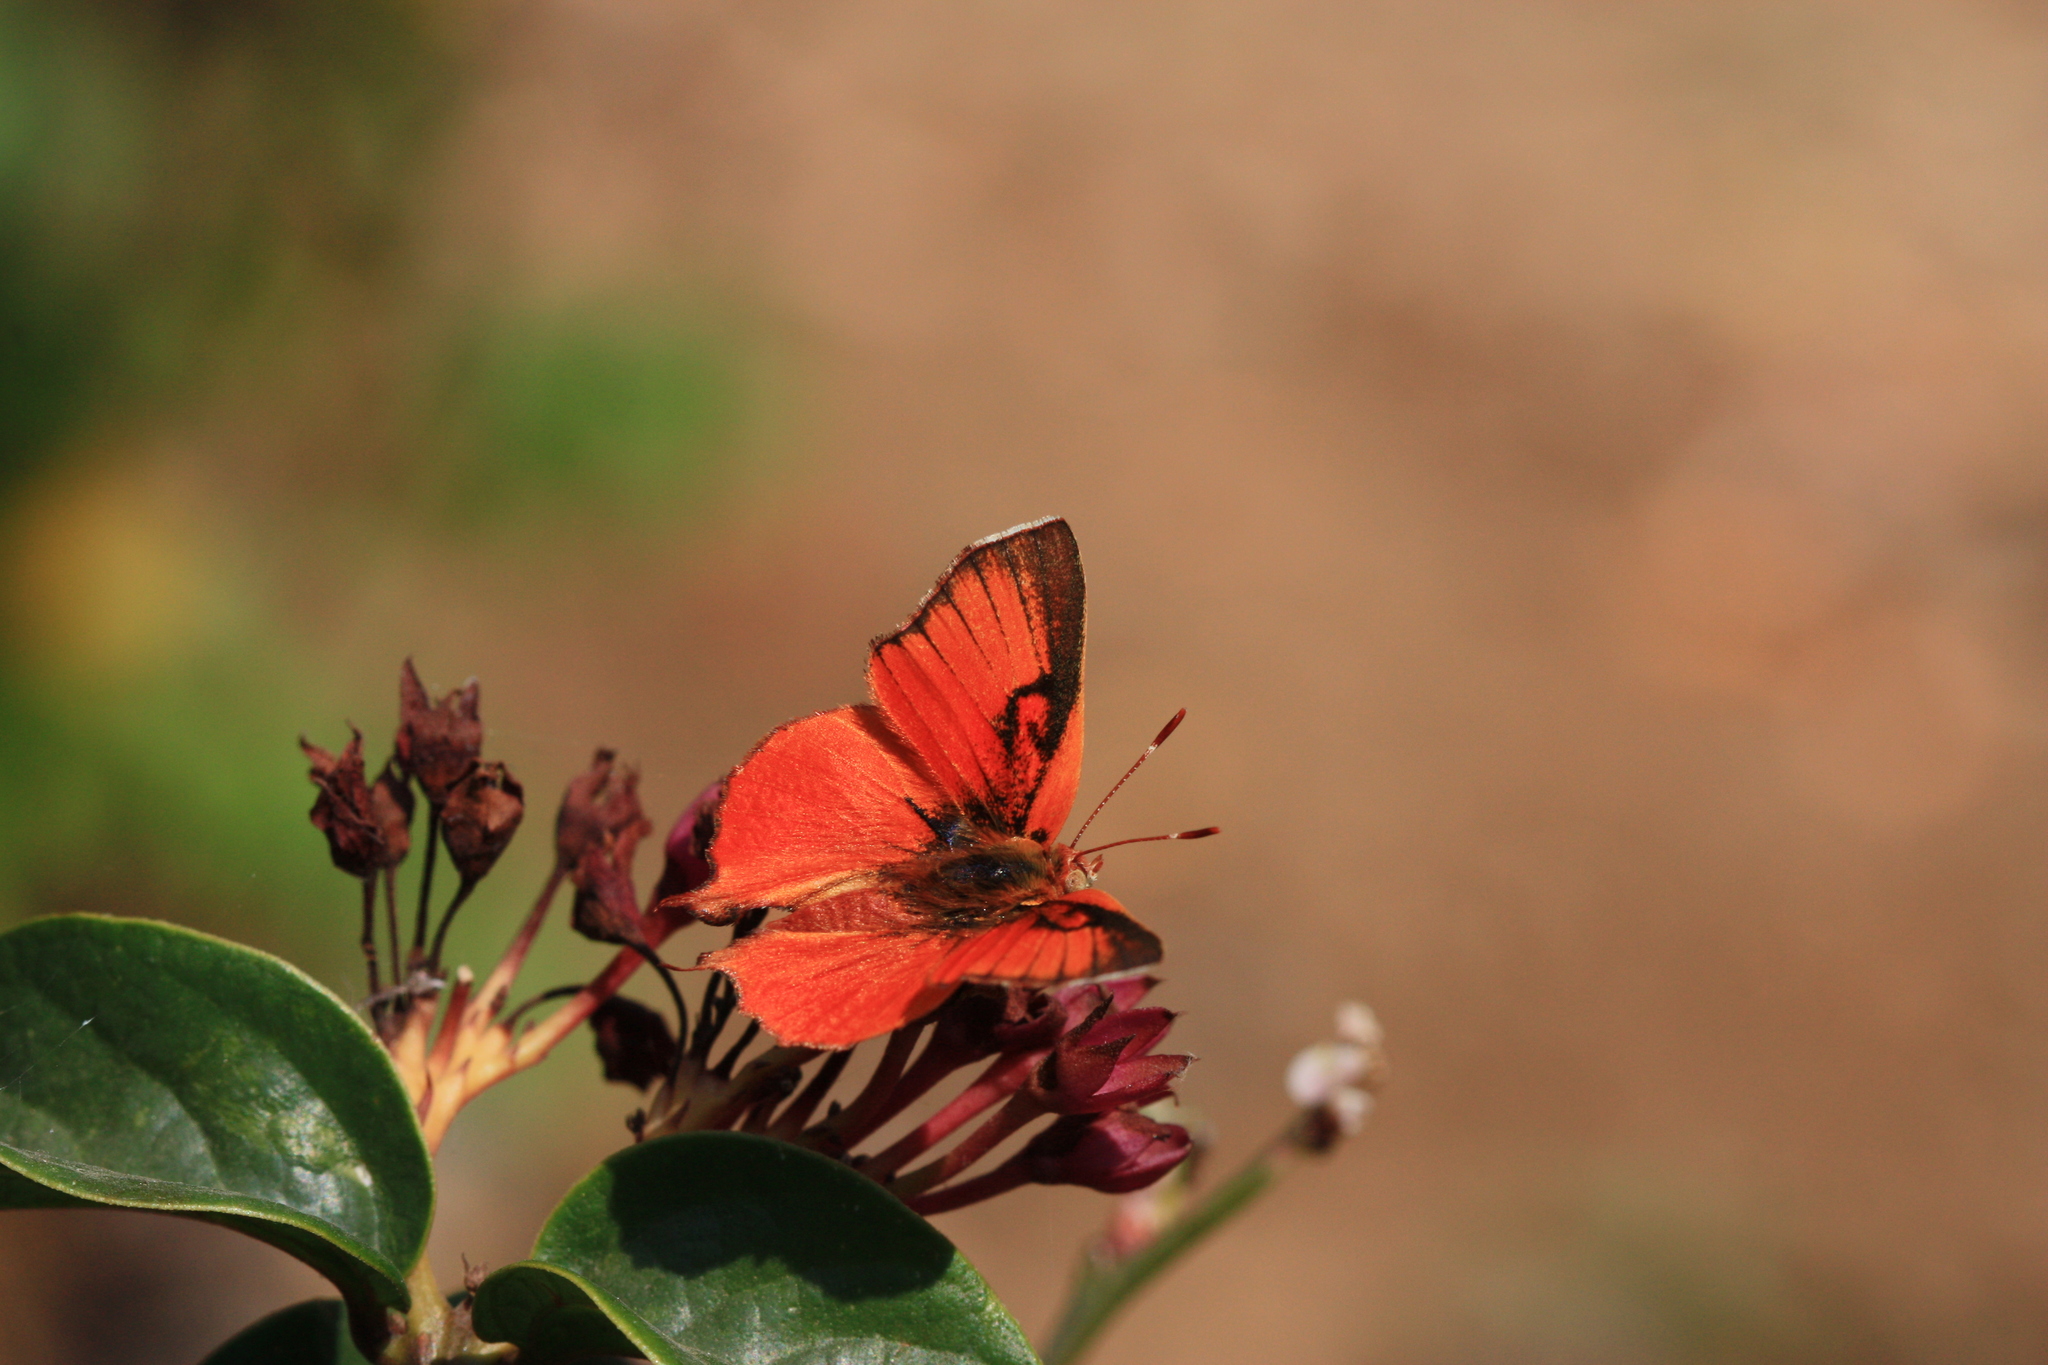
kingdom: Animalia
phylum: Arthropoda
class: Insecta
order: Lepidoptera
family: Lycaenidae
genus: Axiocerses
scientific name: Axiocerses amanga
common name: Bush scarlet
